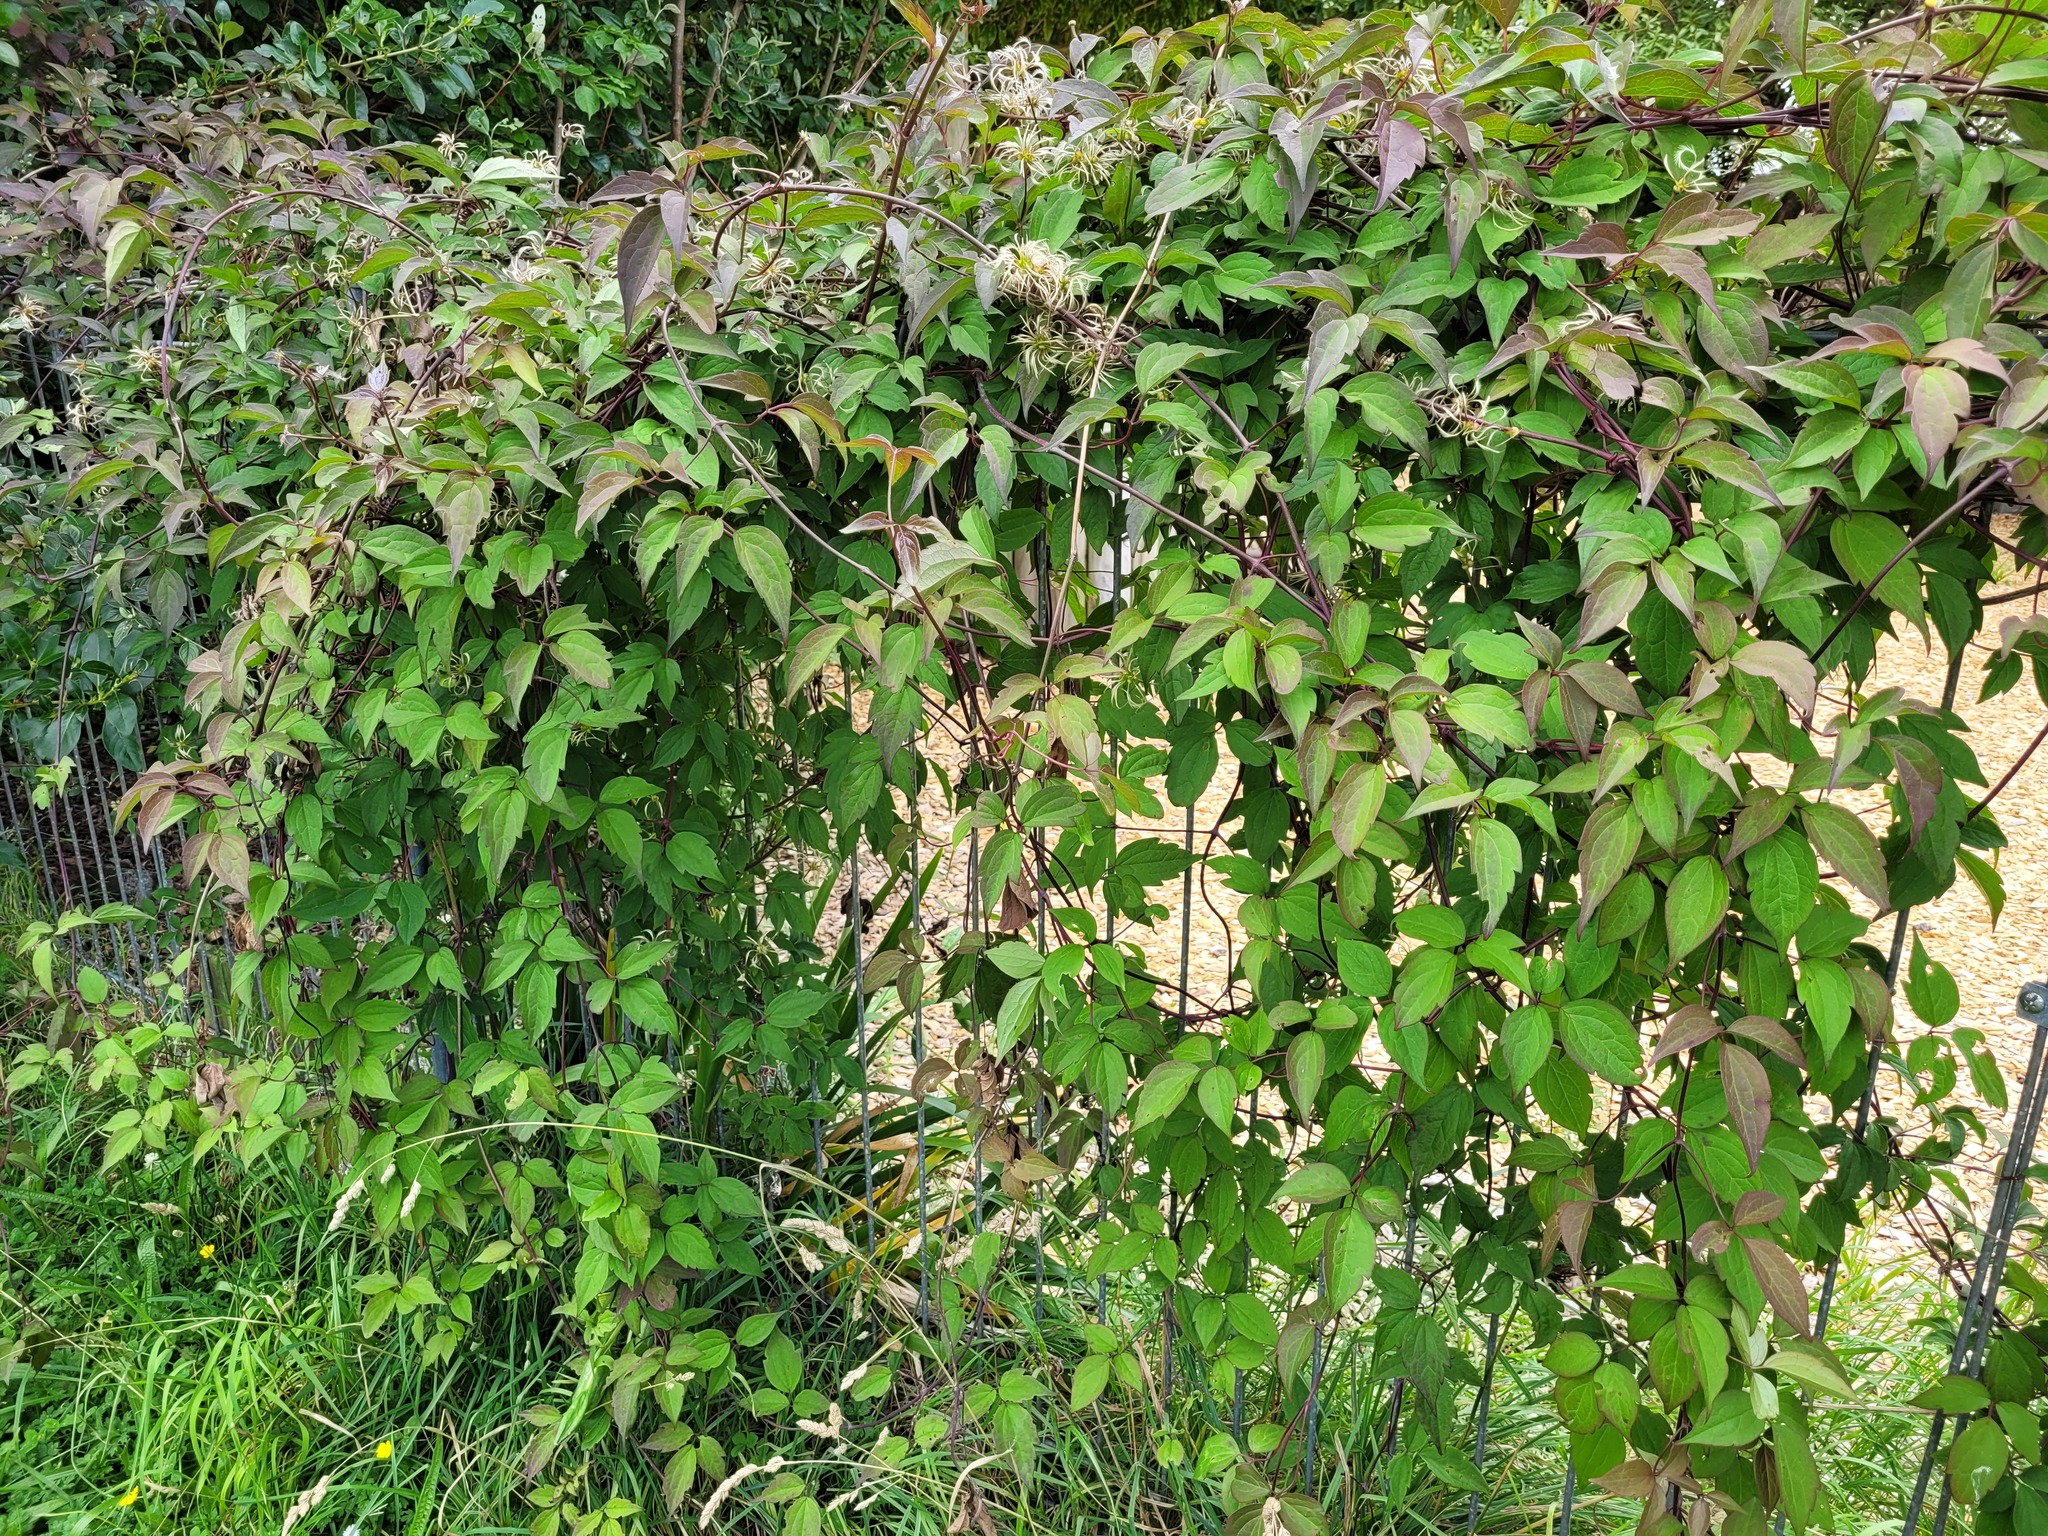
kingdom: Plantae
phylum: Tracheophyta
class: Magnoliopsida
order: Ranunculales
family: Ranunculaceae
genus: Clematis
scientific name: Clematis montana
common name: Himalayan clematis
